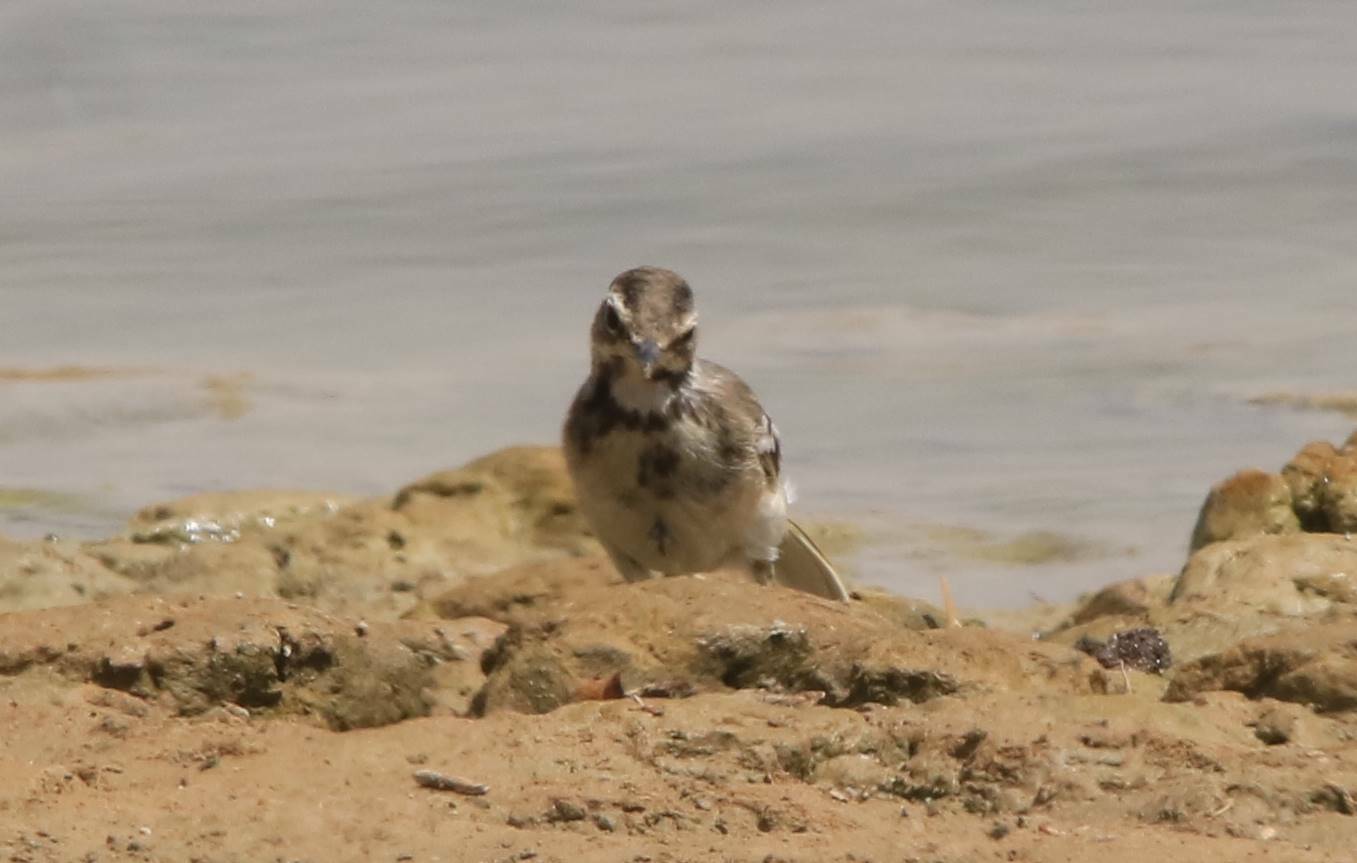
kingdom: Animalia
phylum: Chordata
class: Aves
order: Passeriformes
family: Motacillidae
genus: Motacilla
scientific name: Motacilla alba
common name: White wagtail
